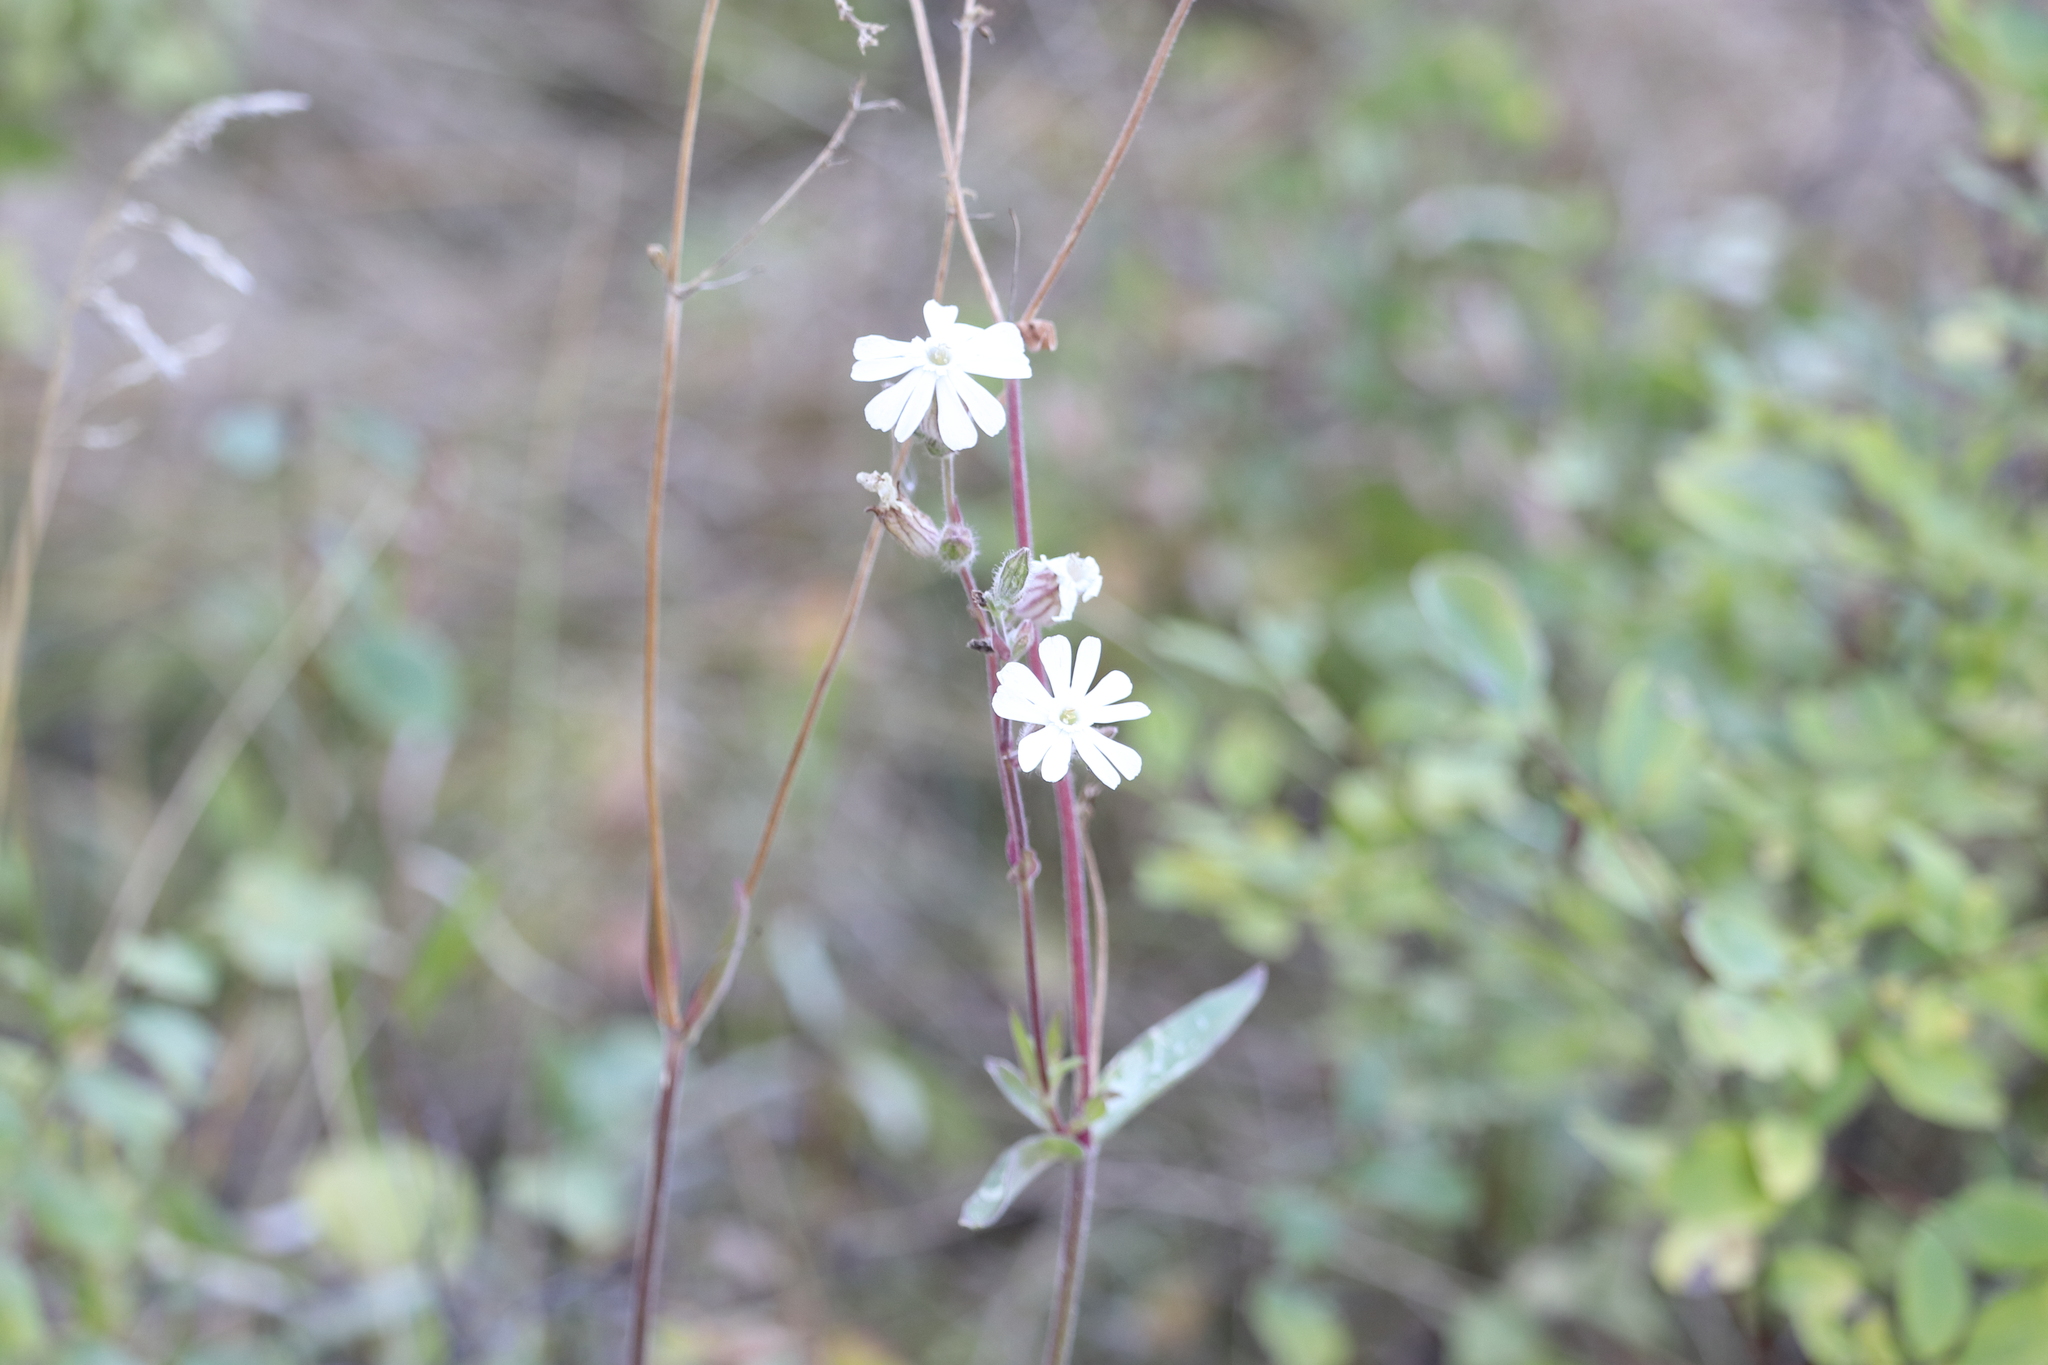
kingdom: Plantae
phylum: Tracheophyta
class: Magnoliopsida
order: Caryophyllales
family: Caryophyllaceae
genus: Silene
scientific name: Silene latifolia
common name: White campion
